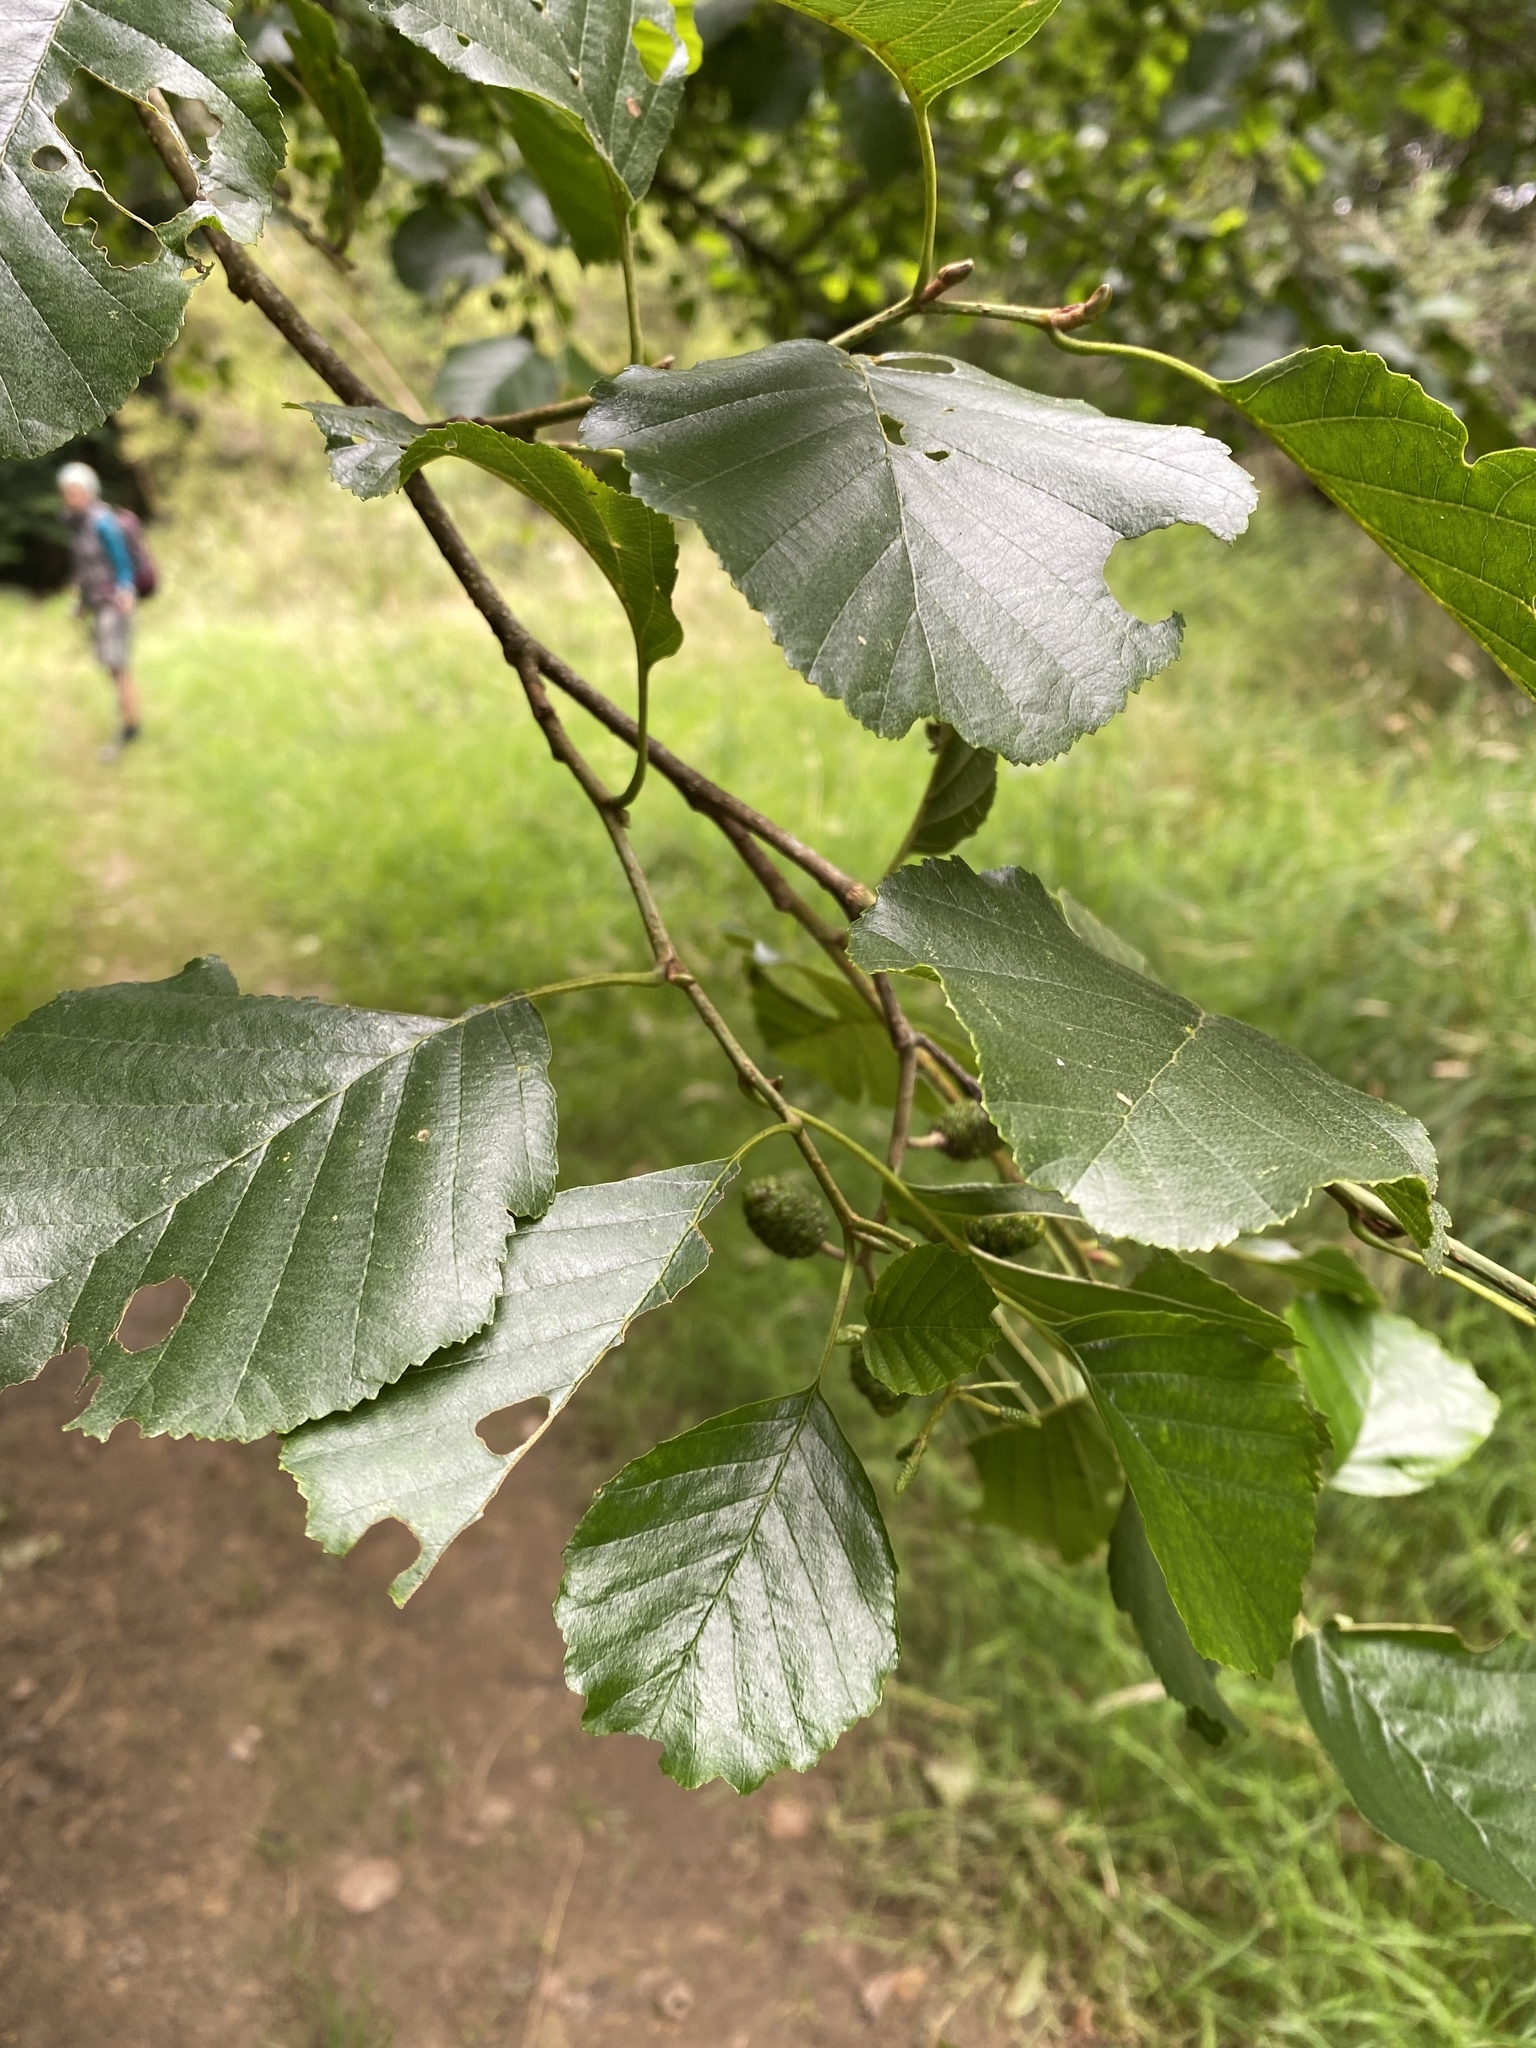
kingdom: Plantae
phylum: Tracheophyta
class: Magnoliopsida
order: Fagales
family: Betulaceae
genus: Alnus
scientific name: Alnus glutinosa
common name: Black alder
